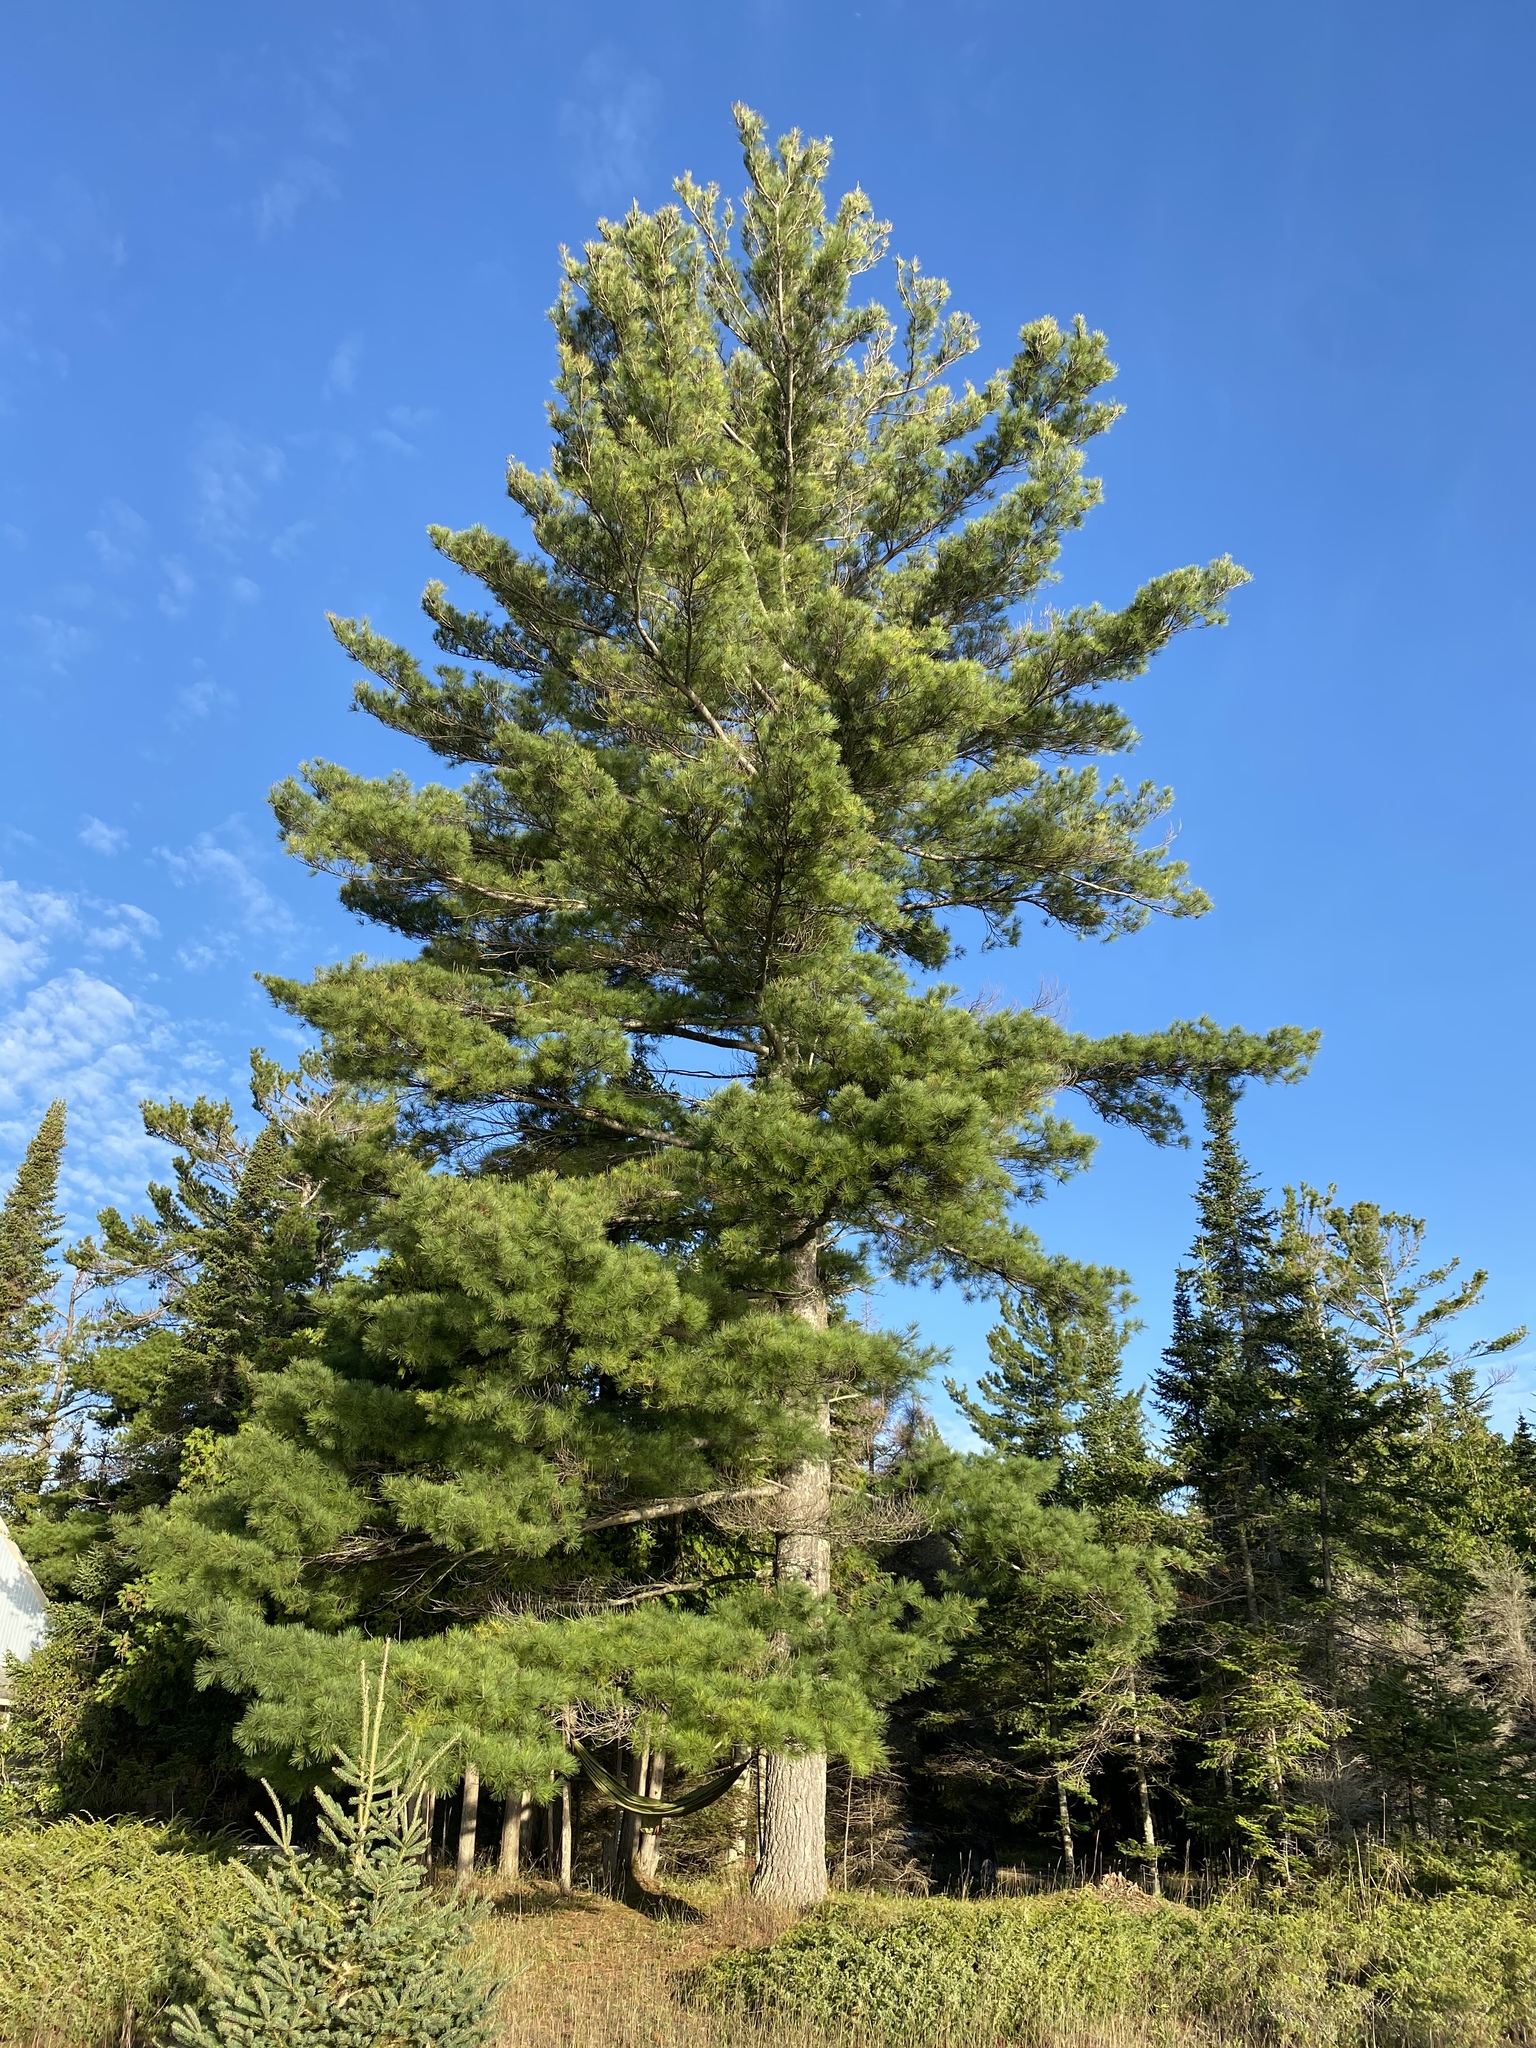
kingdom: Plantae
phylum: Tracheophyta
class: Pinopsida
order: Pinales
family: Pinaceae
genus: Pinus
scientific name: Pinus strobus
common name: Weymouth pine
